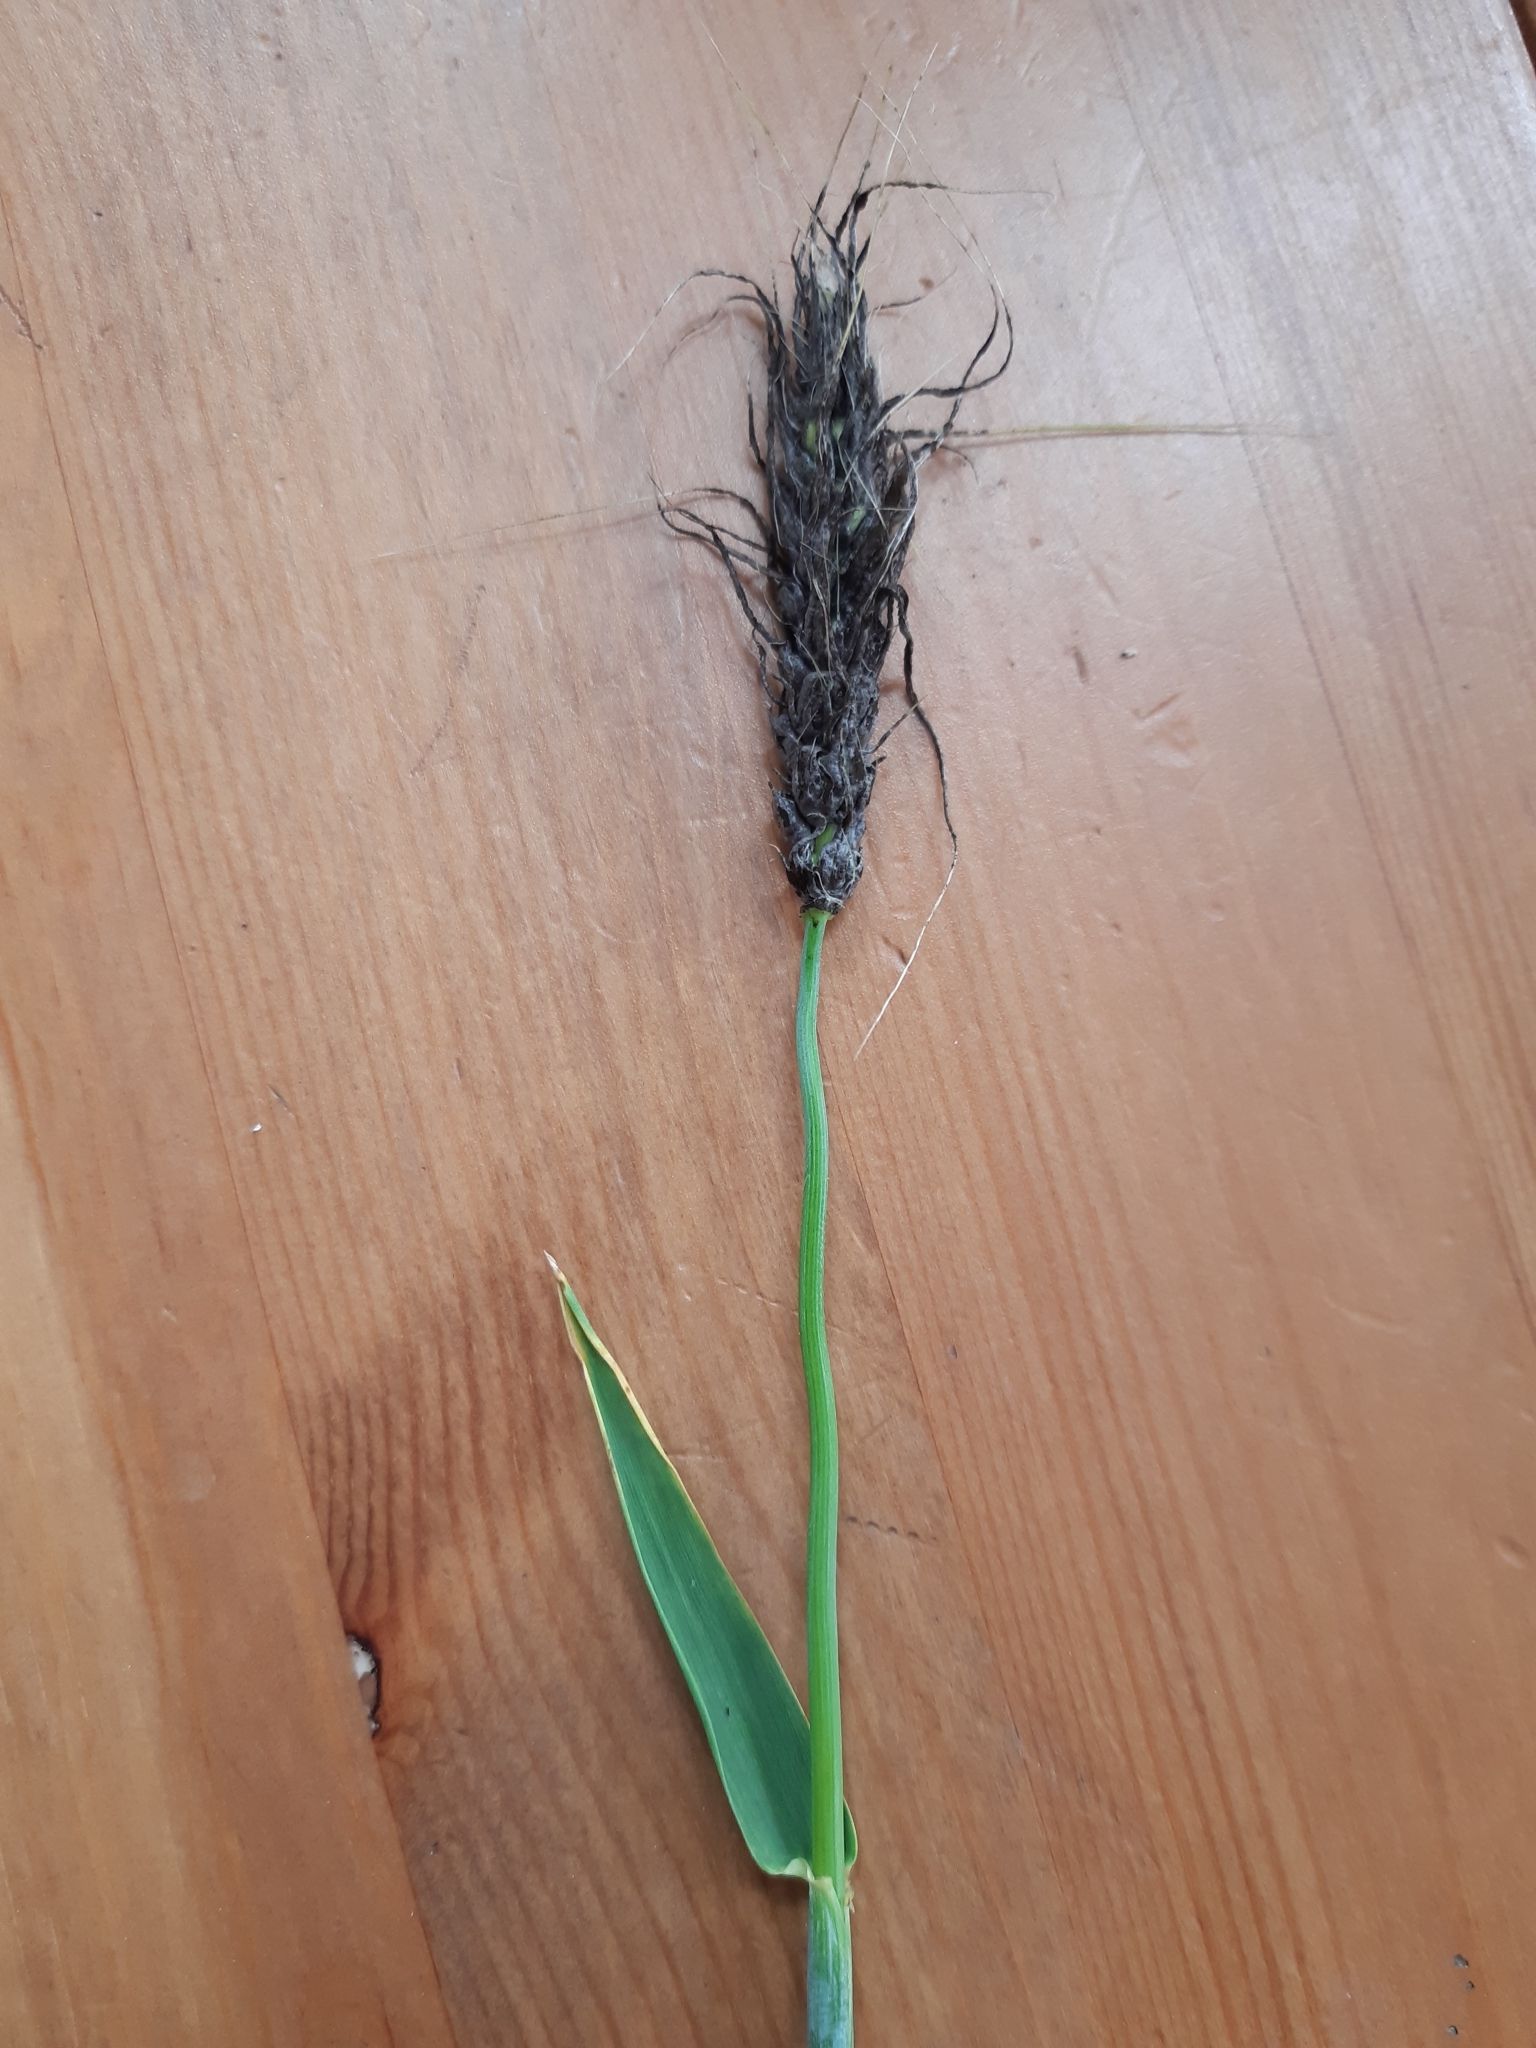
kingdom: Fungi
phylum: Basidiomycota
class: Ustilaginomycetes
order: Ustilaginales
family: Ustilaginaceae
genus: Ustilago
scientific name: Ustilago nuda
